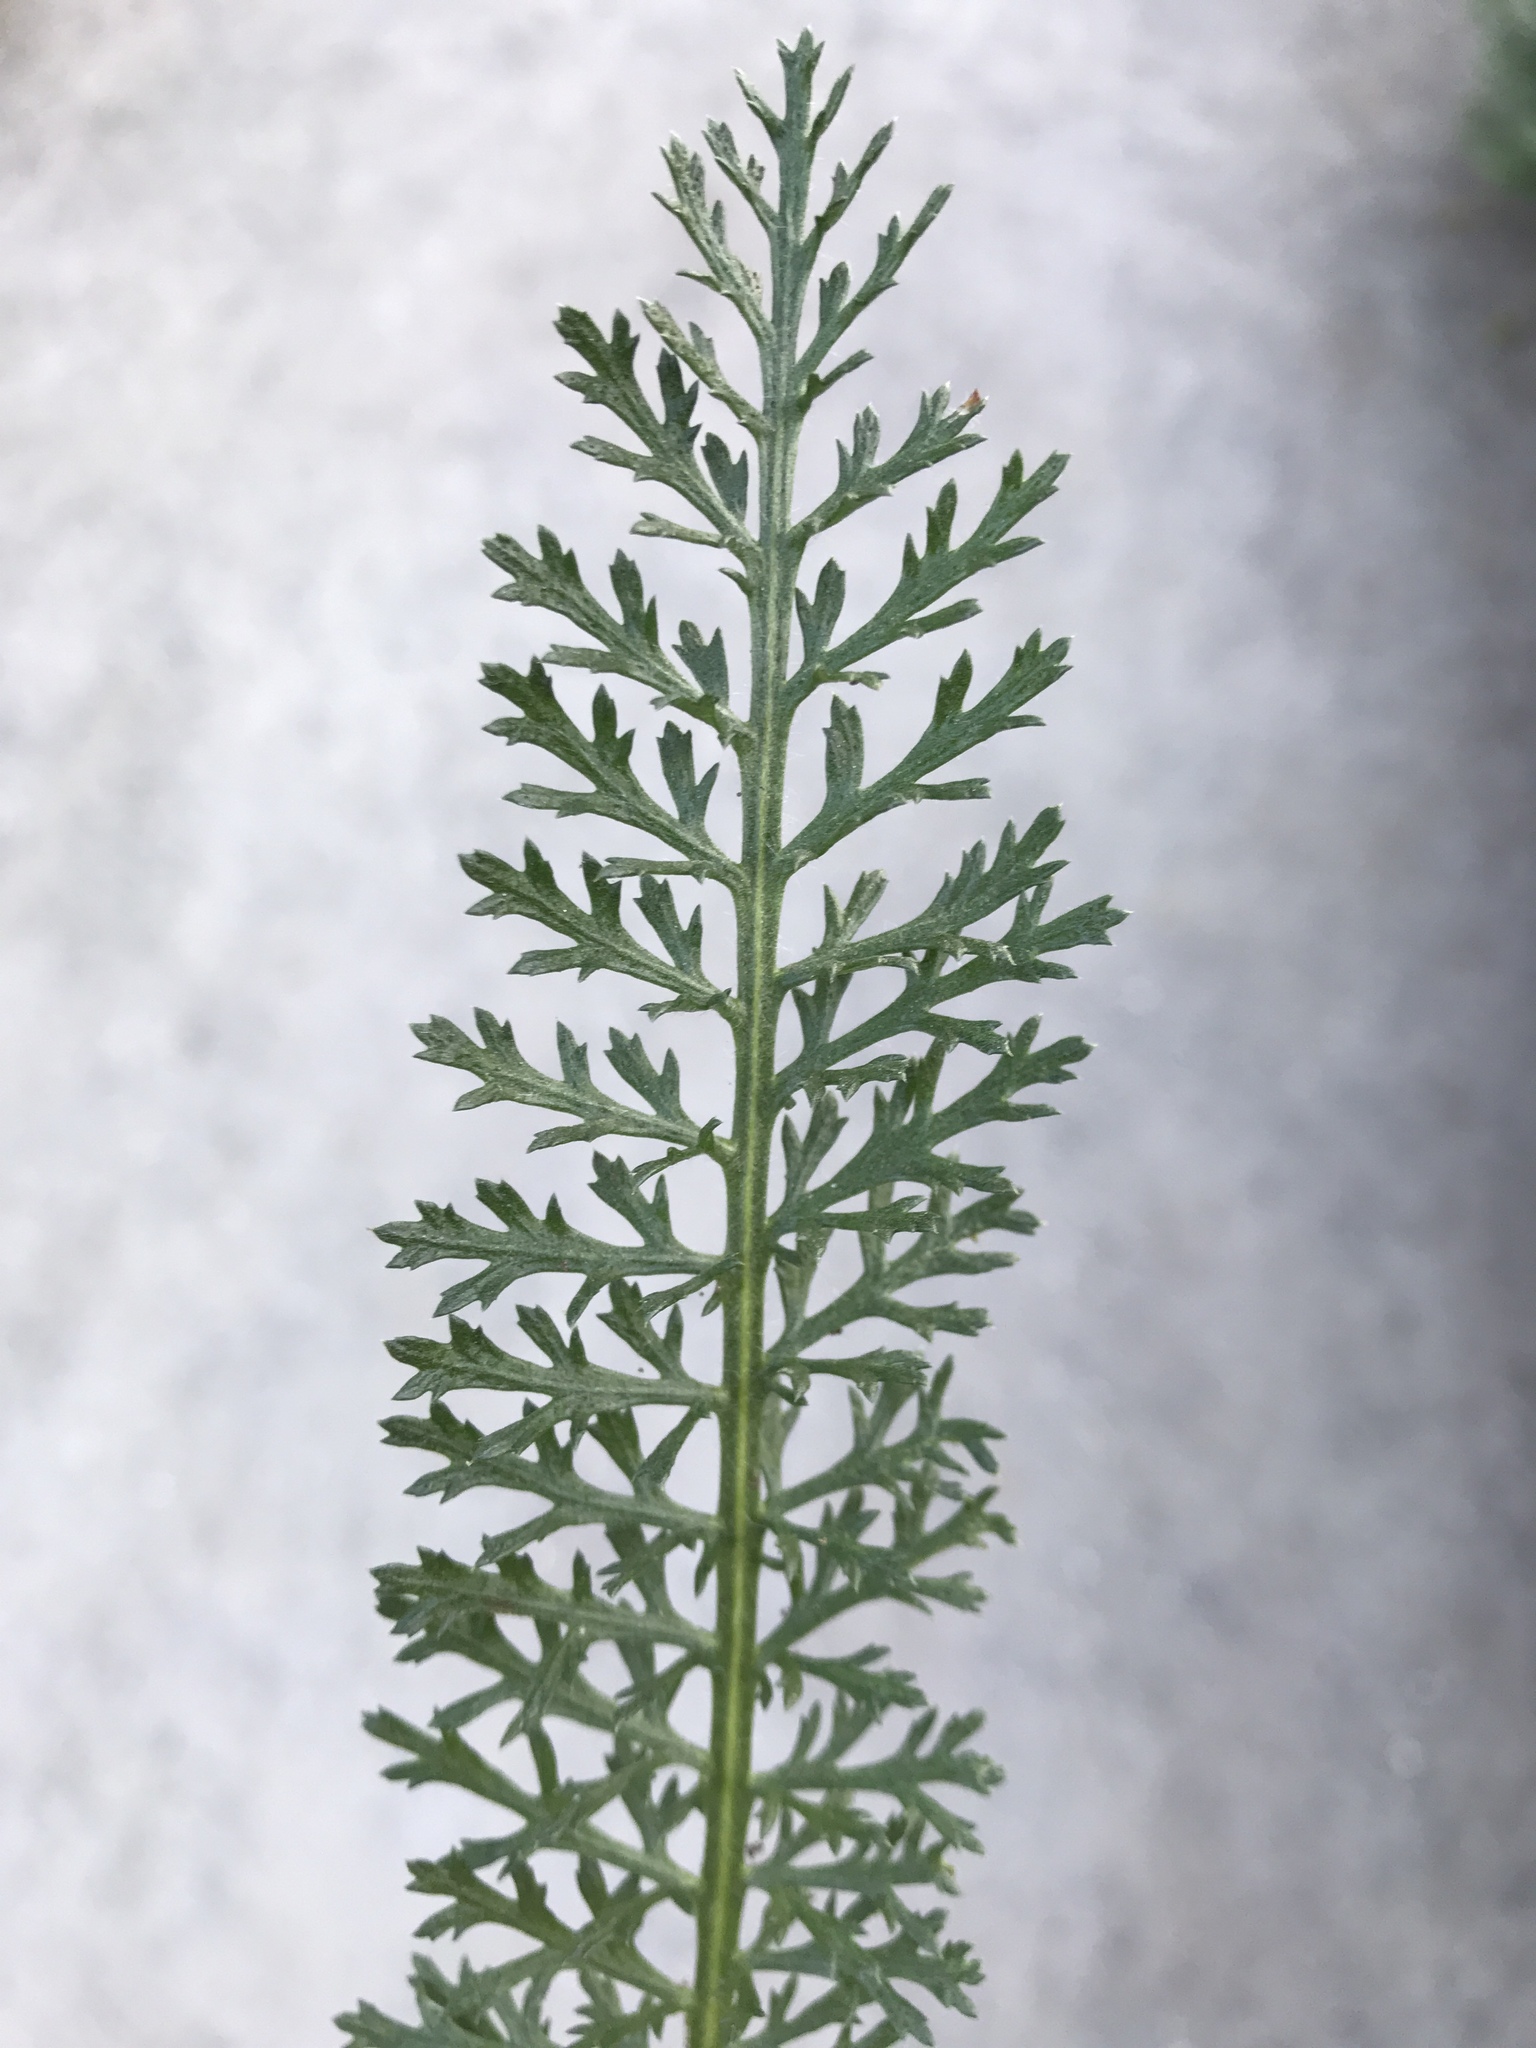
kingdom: Plantae
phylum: Tracheophyta
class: Magnoliopsida
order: Asterales
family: Asteraceae
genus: Achillea
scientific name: Achillea millefolium
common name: Yarrow
